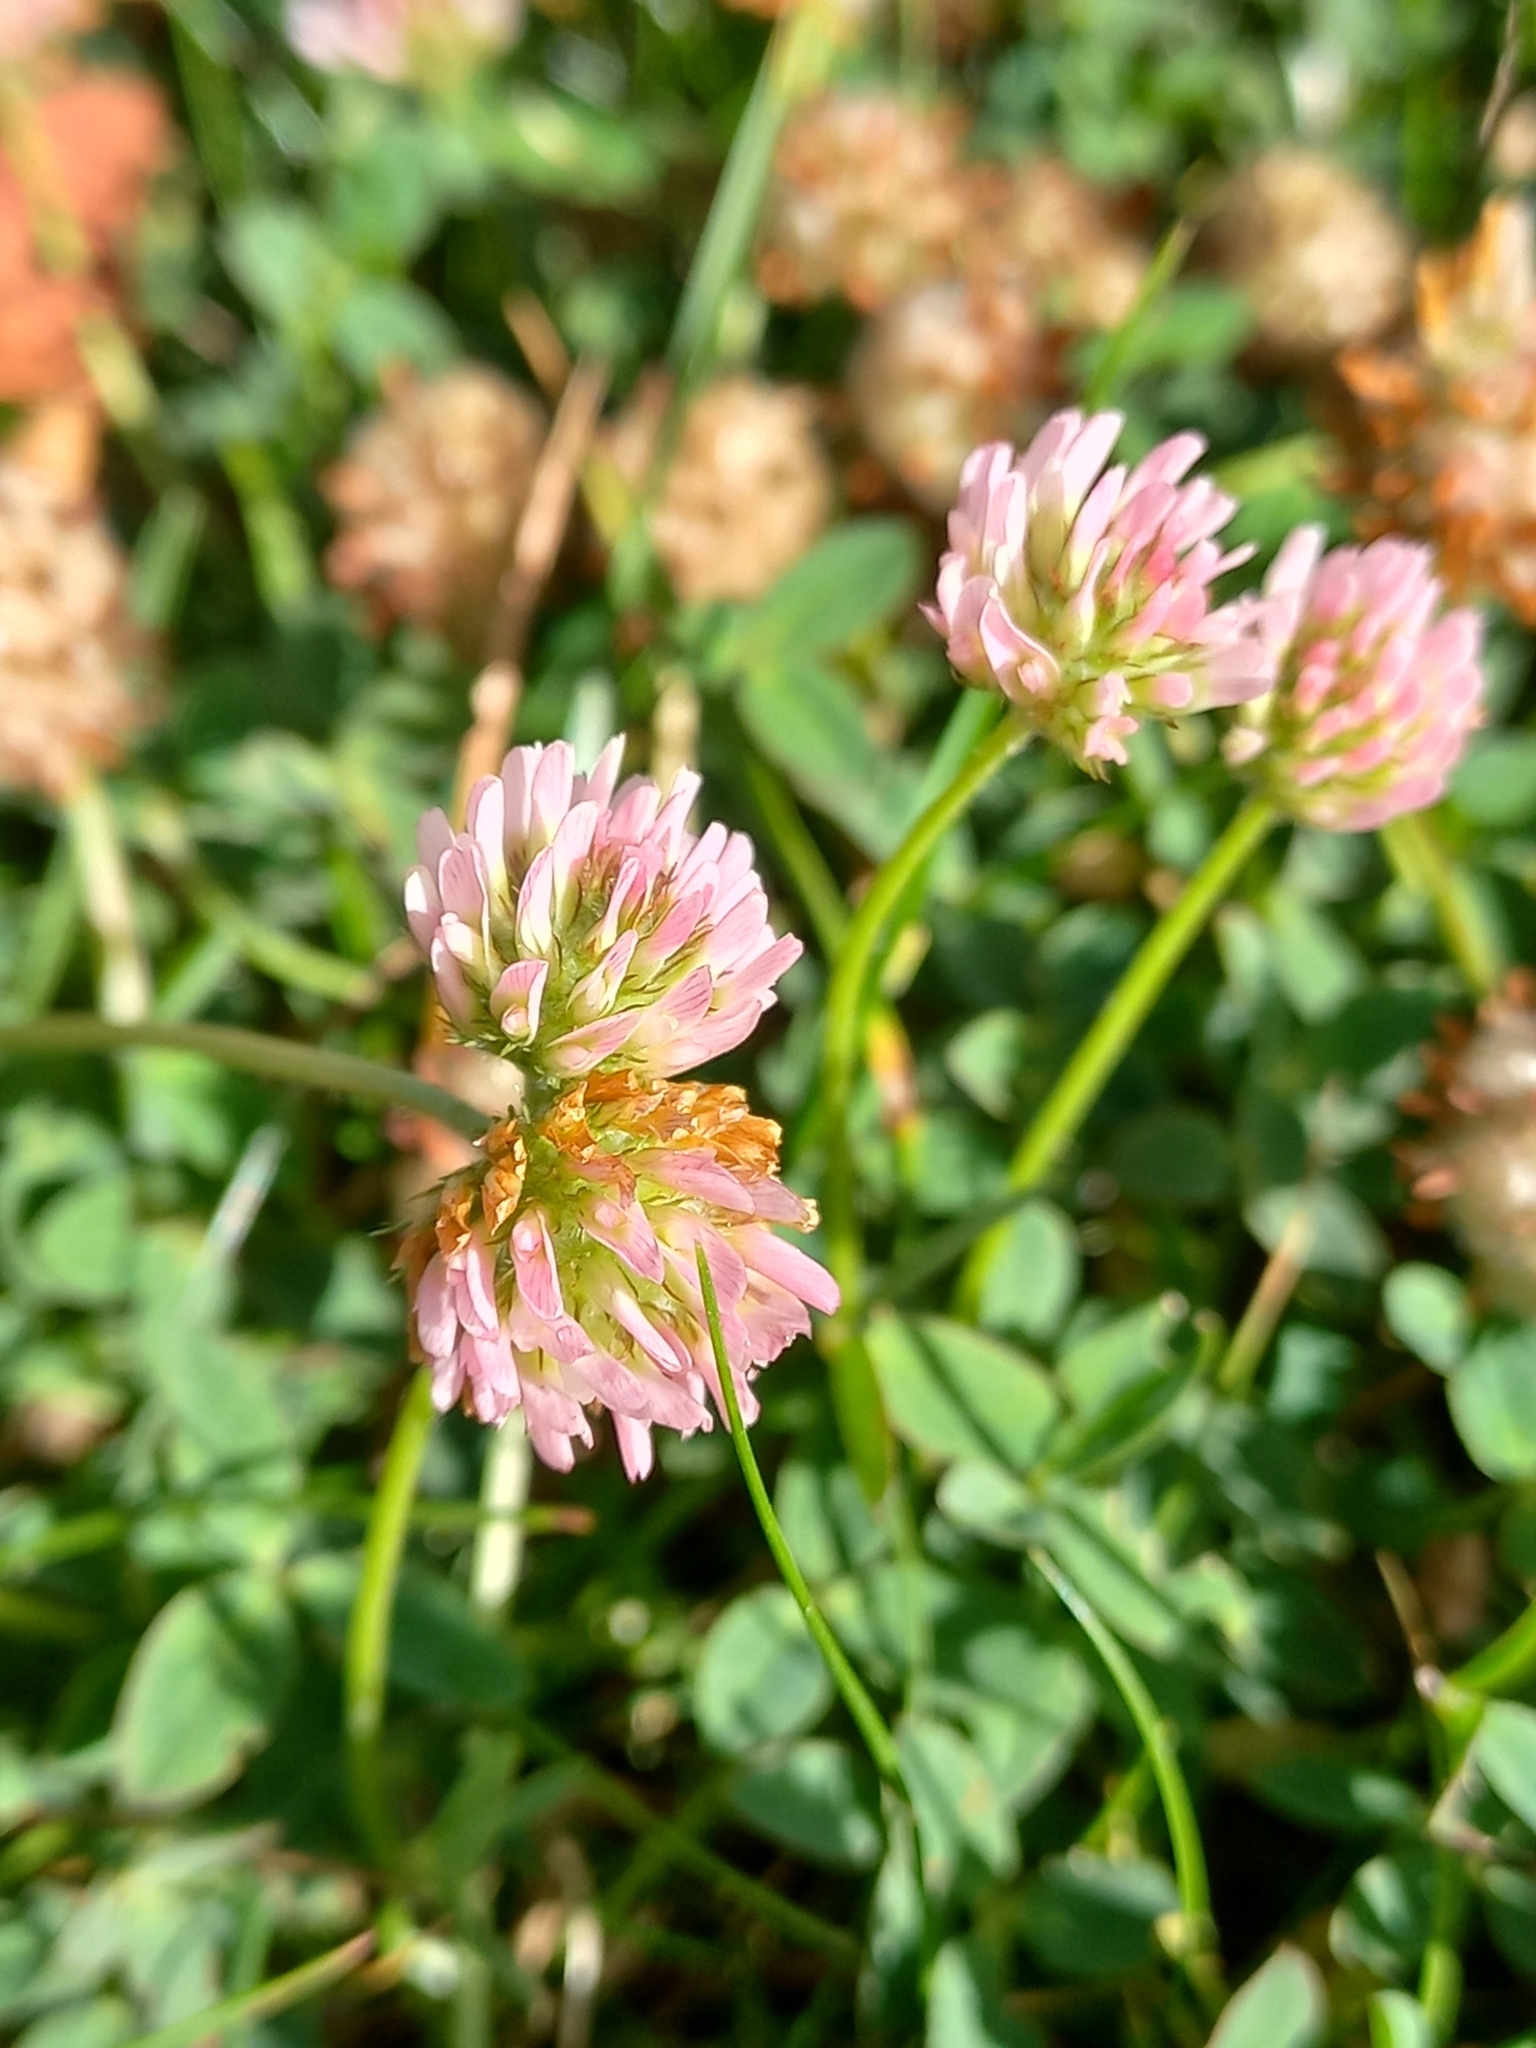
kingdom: Plantae
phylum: Tracheophyta
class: Magnoliopsida
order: Fabales
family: Fabaceae
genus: Trifolium
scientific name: Trifolium fragiferum
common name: Strawberry clover
